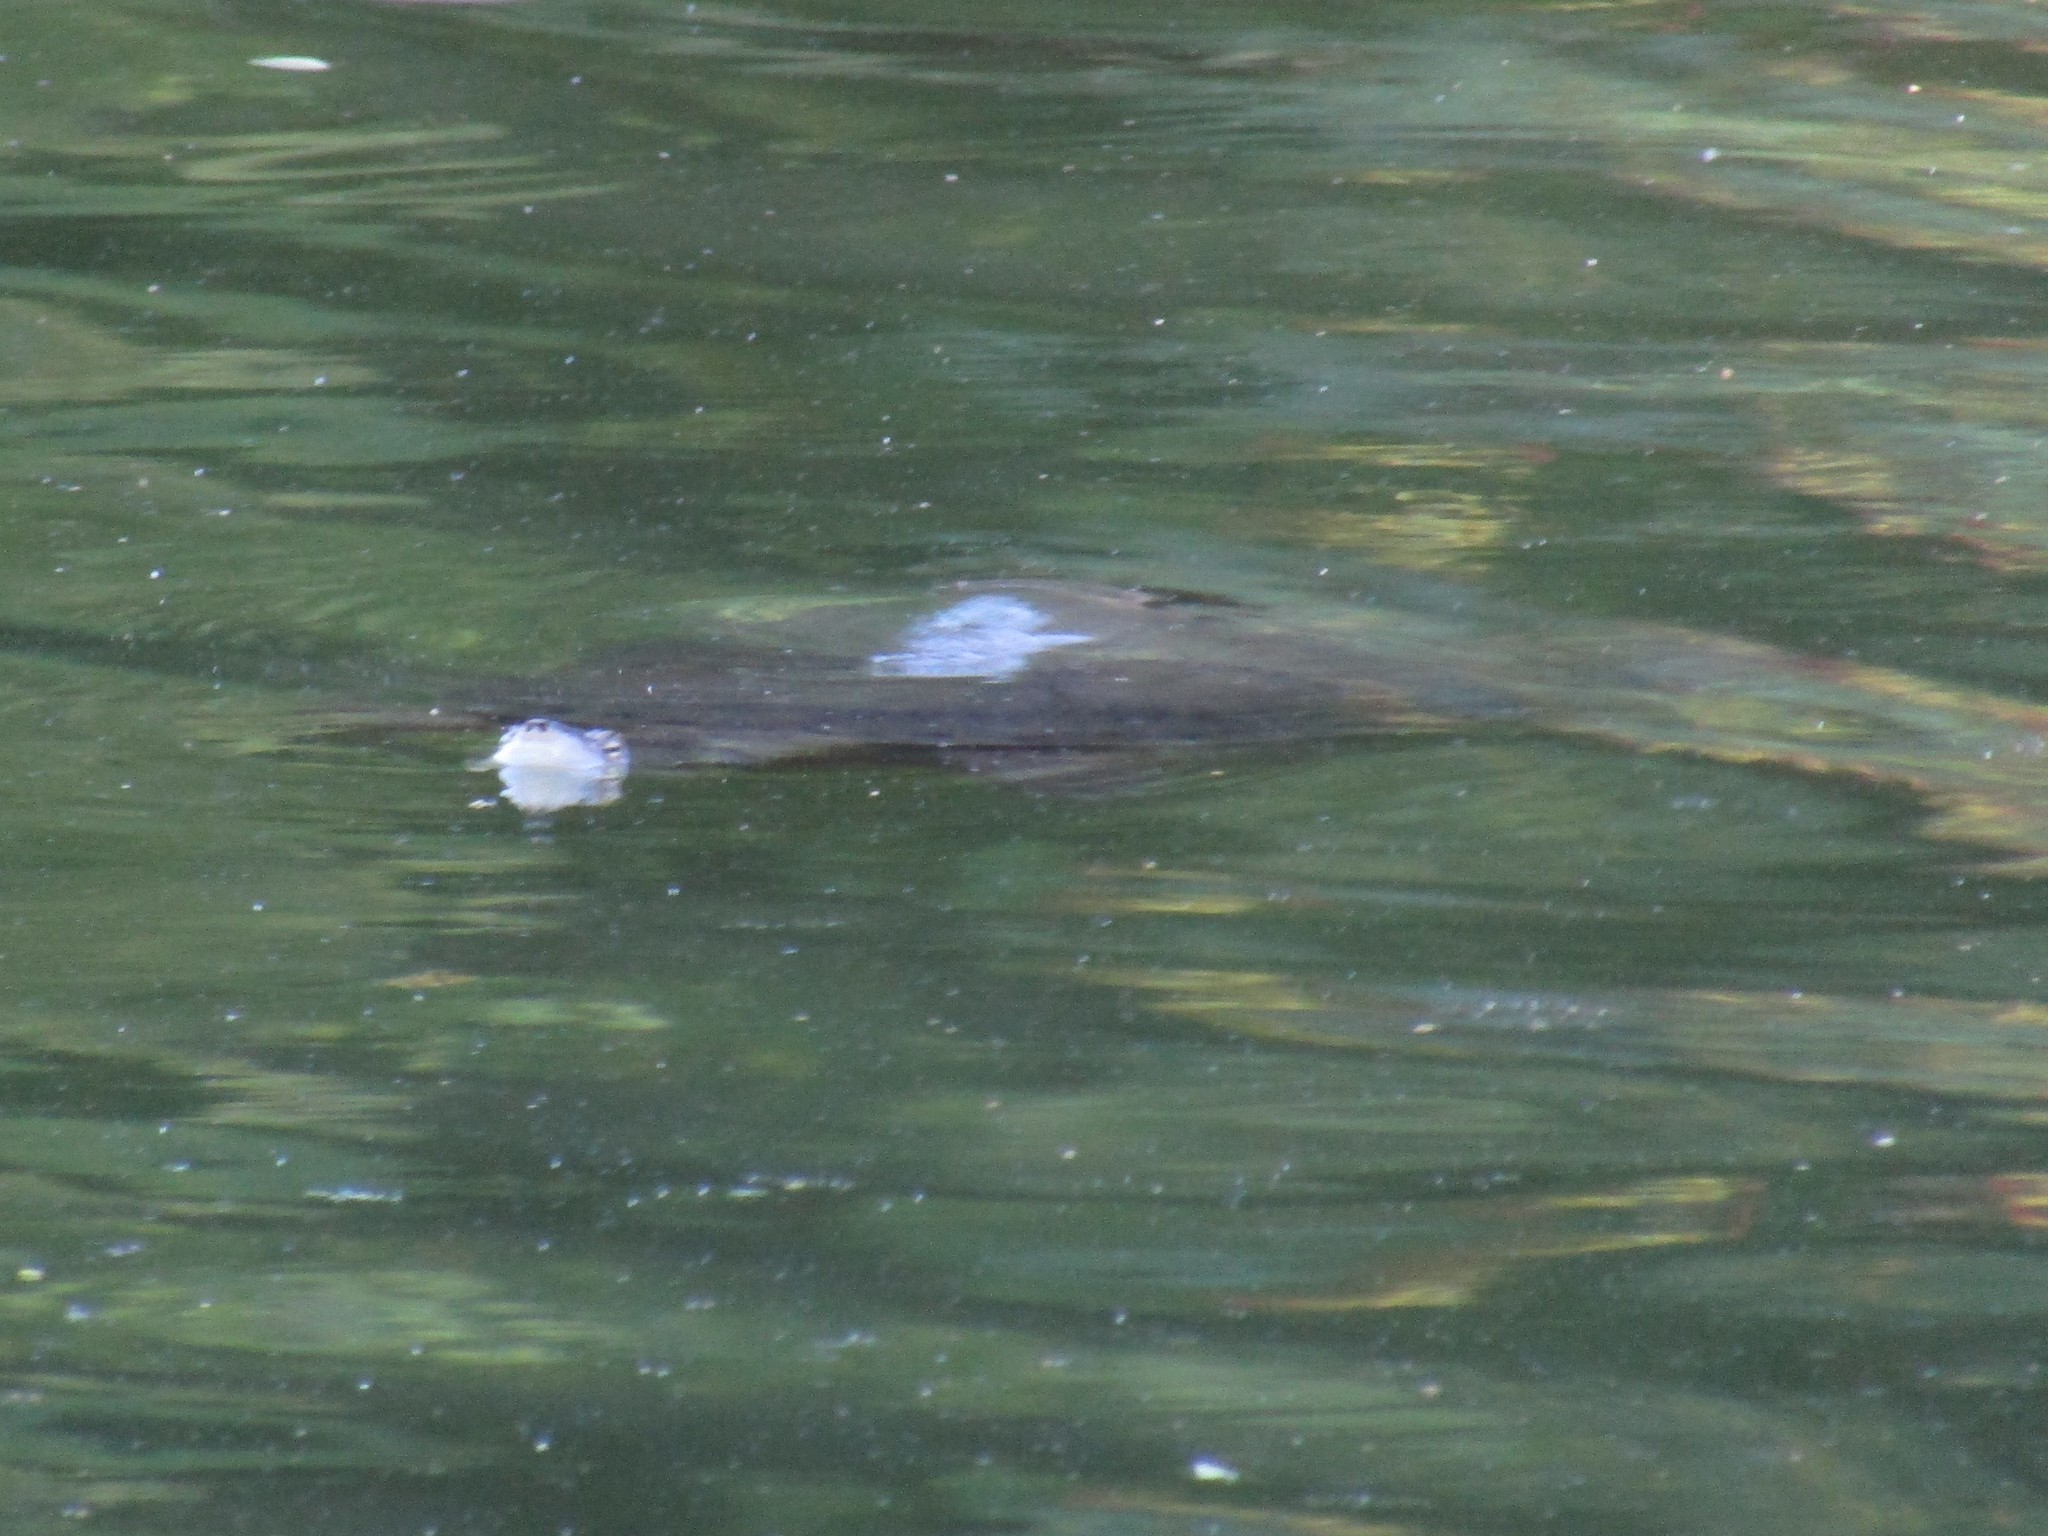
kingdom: Animalia
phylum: Chordata
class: Testudines
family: Chelidae
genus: Phrynops
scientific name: Phrynops hilarii
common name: Side-necked turtle of saint hillaire
